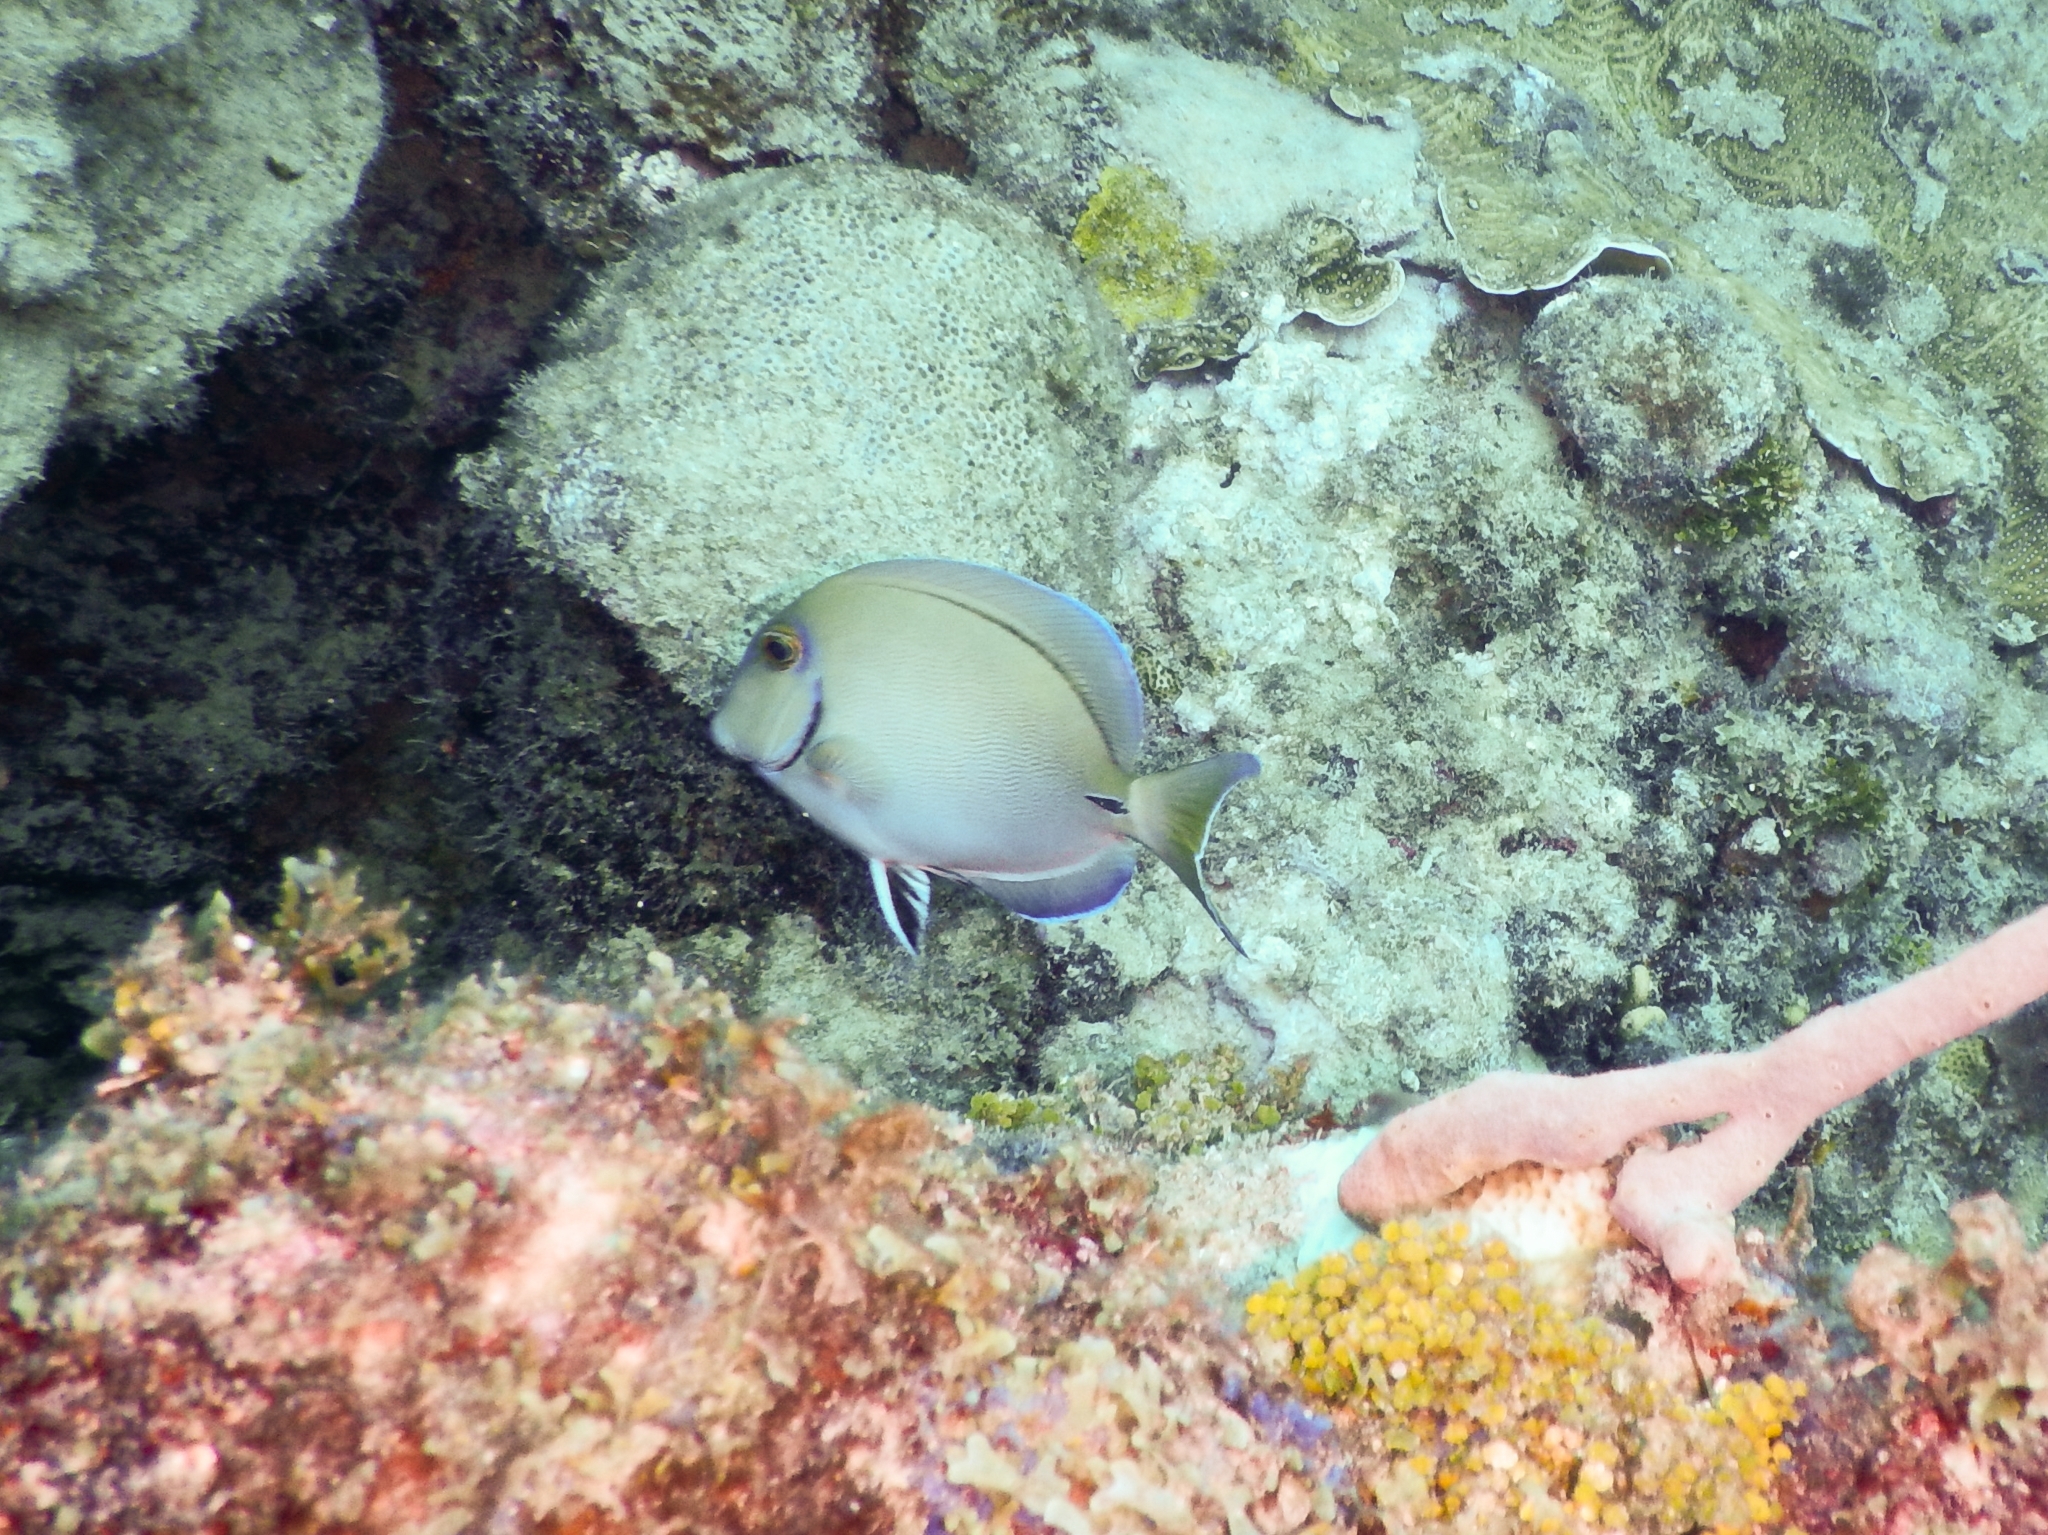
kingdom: Animalia
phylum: Chordata
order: Perciformes
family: Acanthuridae
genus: Acanthurus
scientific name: Acanthurus bahianus
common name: Ocean surgeon
